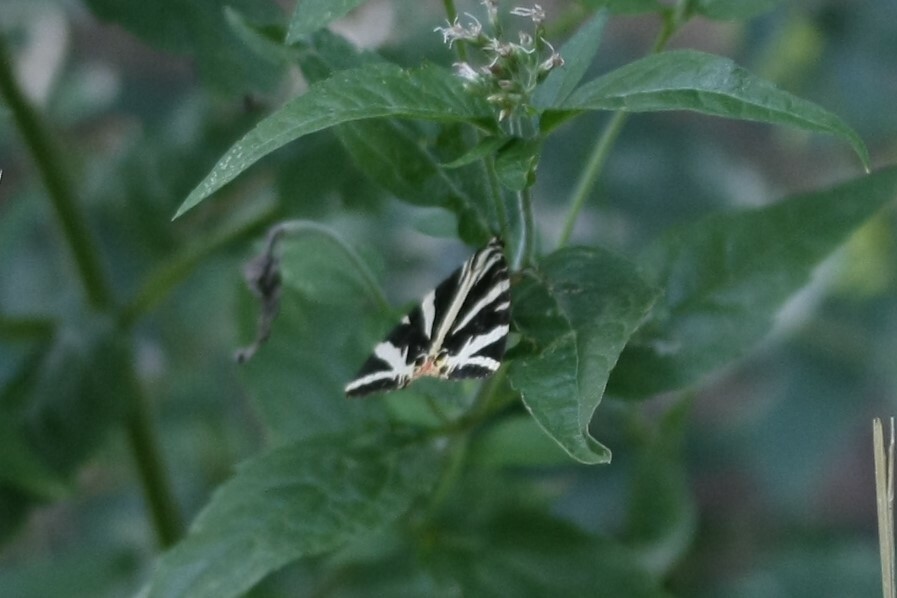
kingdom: Animalia
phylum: Arthropoda
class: Insecta
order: Lepidoptera
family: Erebidae
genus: Euplagia
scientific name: Euplagia quadripunctaria
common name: Jersey tiger
